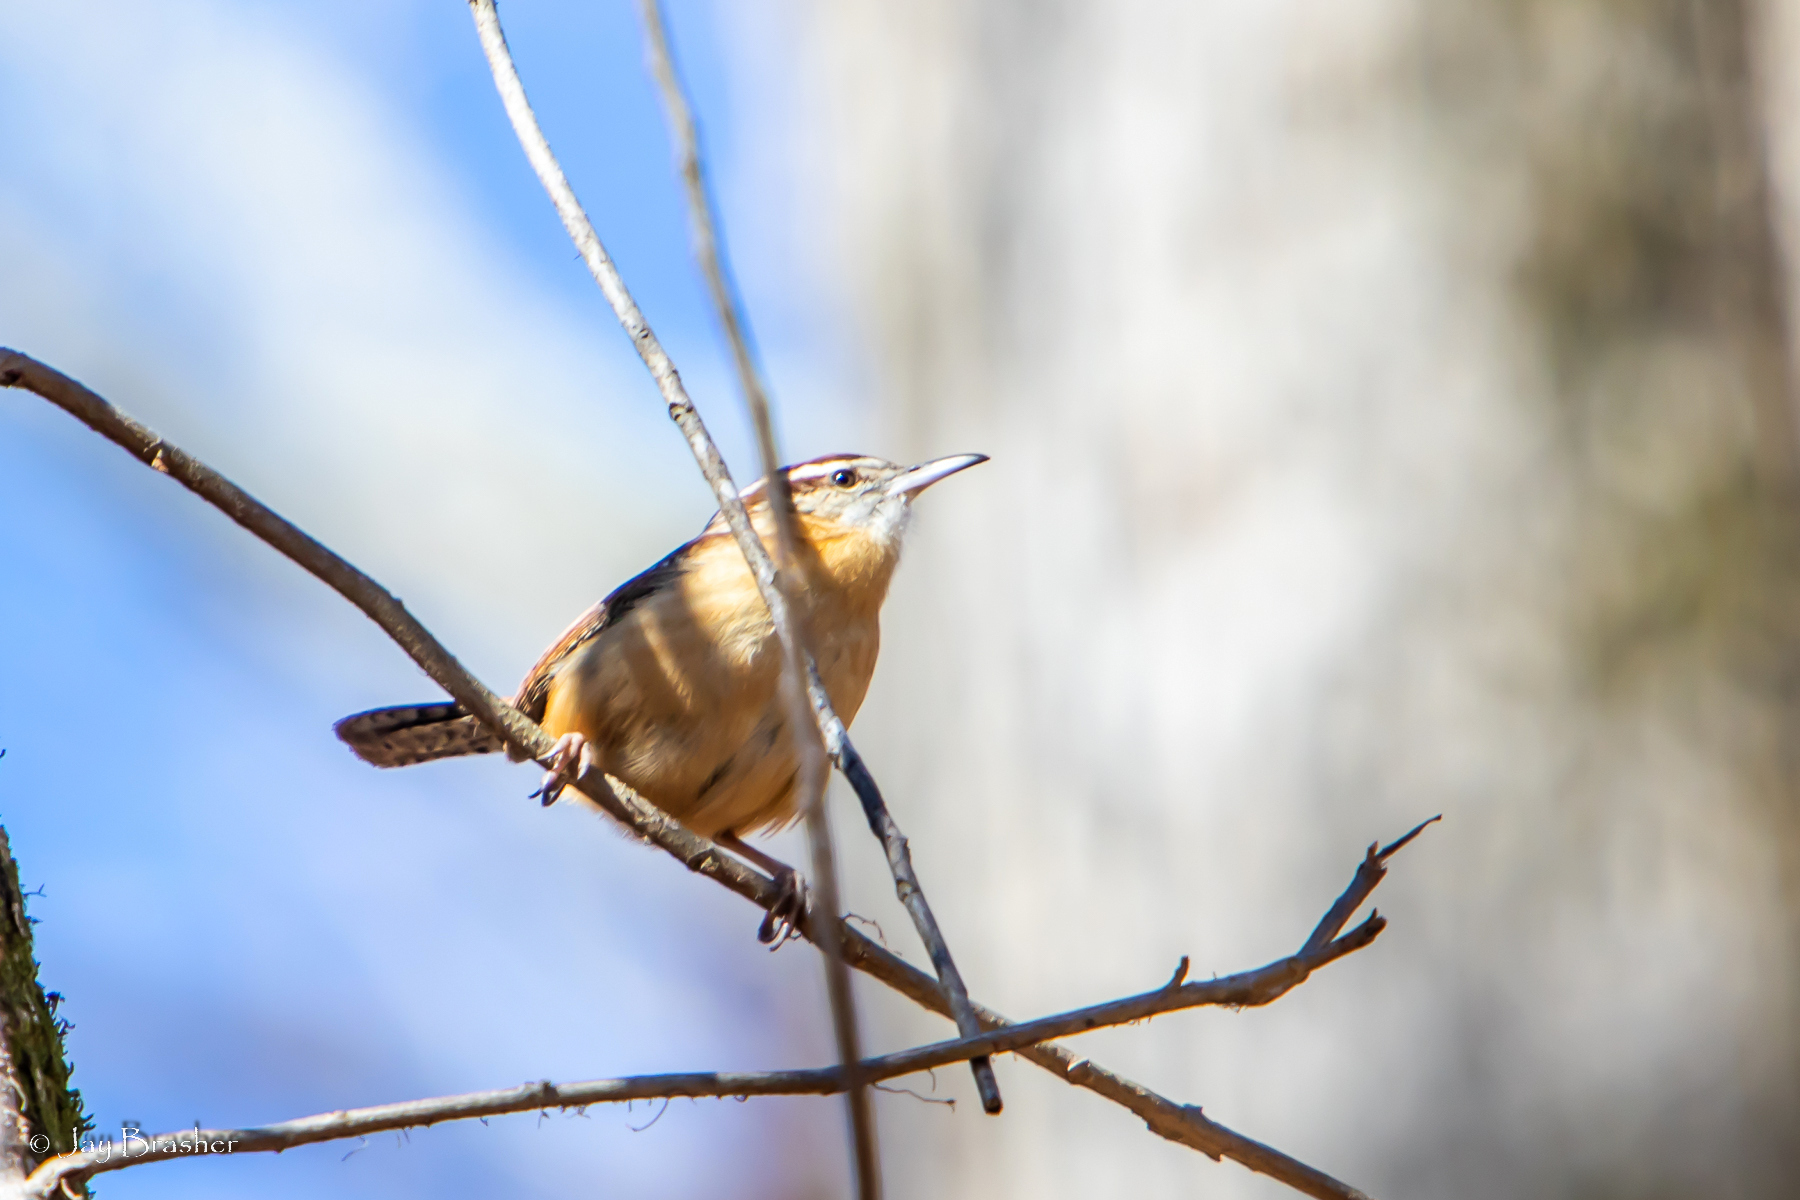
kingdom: Animalia
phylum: Chordata
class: Aves
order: Passeriformes
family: Troglodytidae
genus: Thryothorus
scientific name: Thryothorus ludovicianus
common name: Carolina wren
